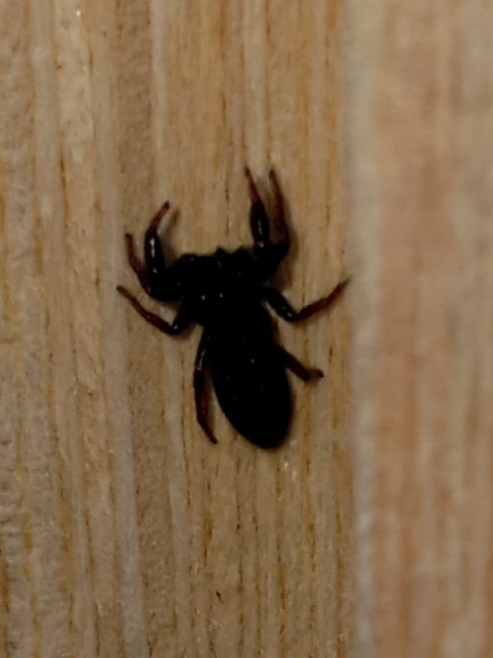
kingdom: Animalia
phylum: Arthropoda
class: Arachnida
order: Araneae
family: Salticidae
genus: Metacyrba
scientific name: Metacyrba taeniola
